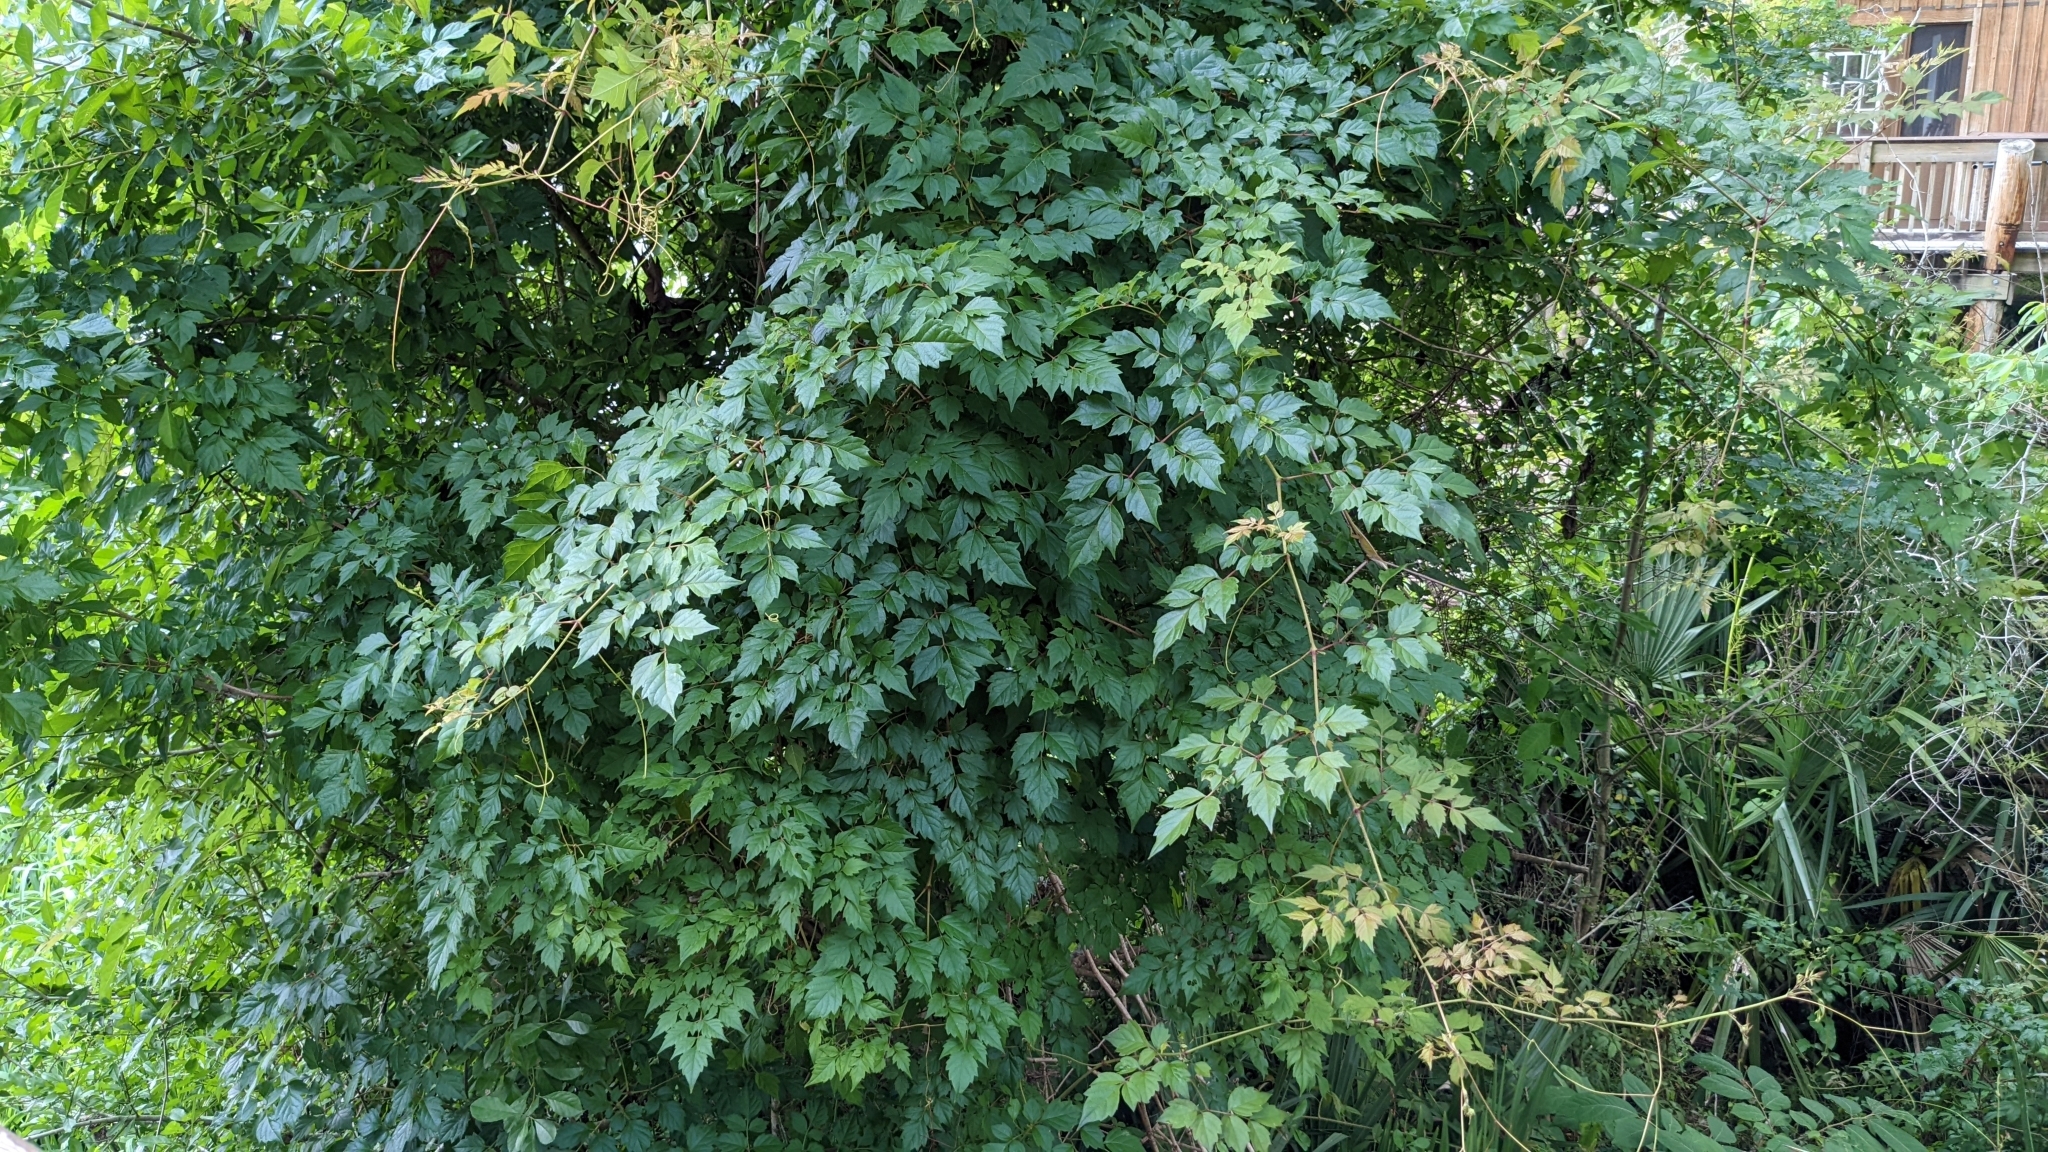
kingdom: Plantae
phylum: Tracheophyta
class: Magnoliopsida
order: Vitales
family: Vitaceae
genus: Nekemias
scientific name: Nekemias arborea
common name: Peppervine
